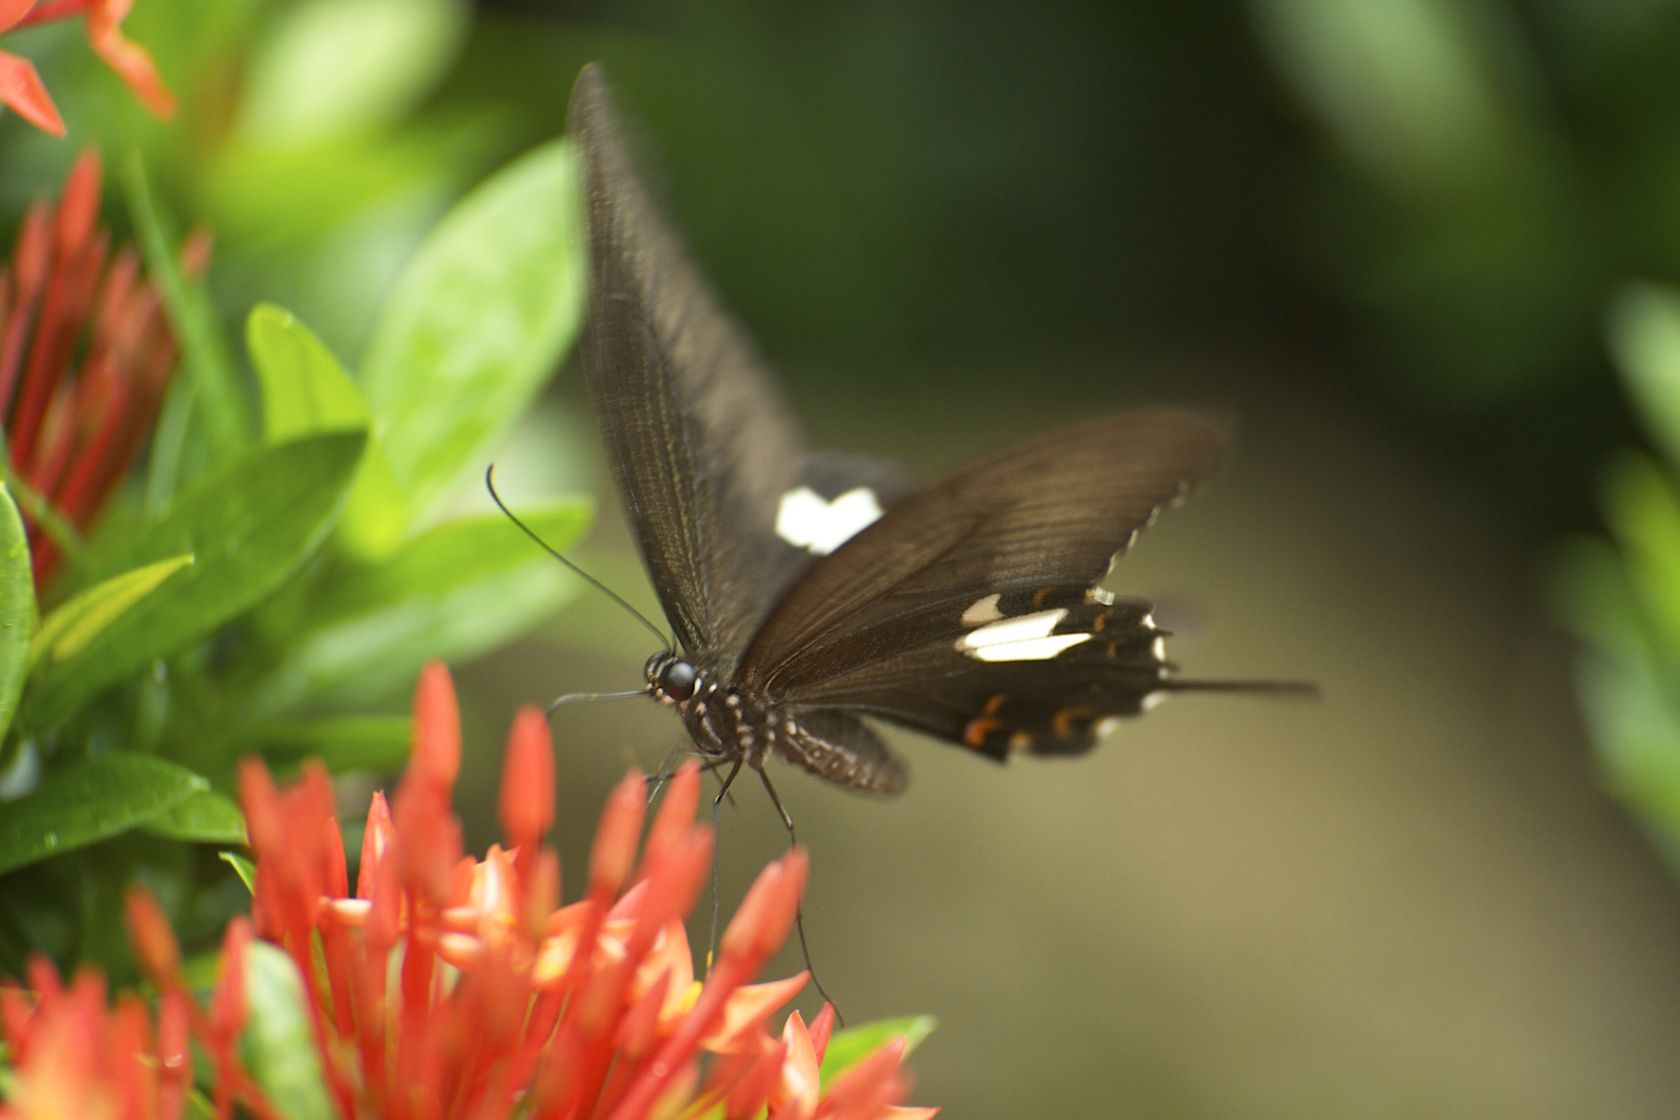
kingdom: Animalia
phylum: Arthropoda
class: Insecta
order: Lepidoptera
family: Papilionidae
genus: Papilio
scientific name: Papilio helenus
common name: Red helen
